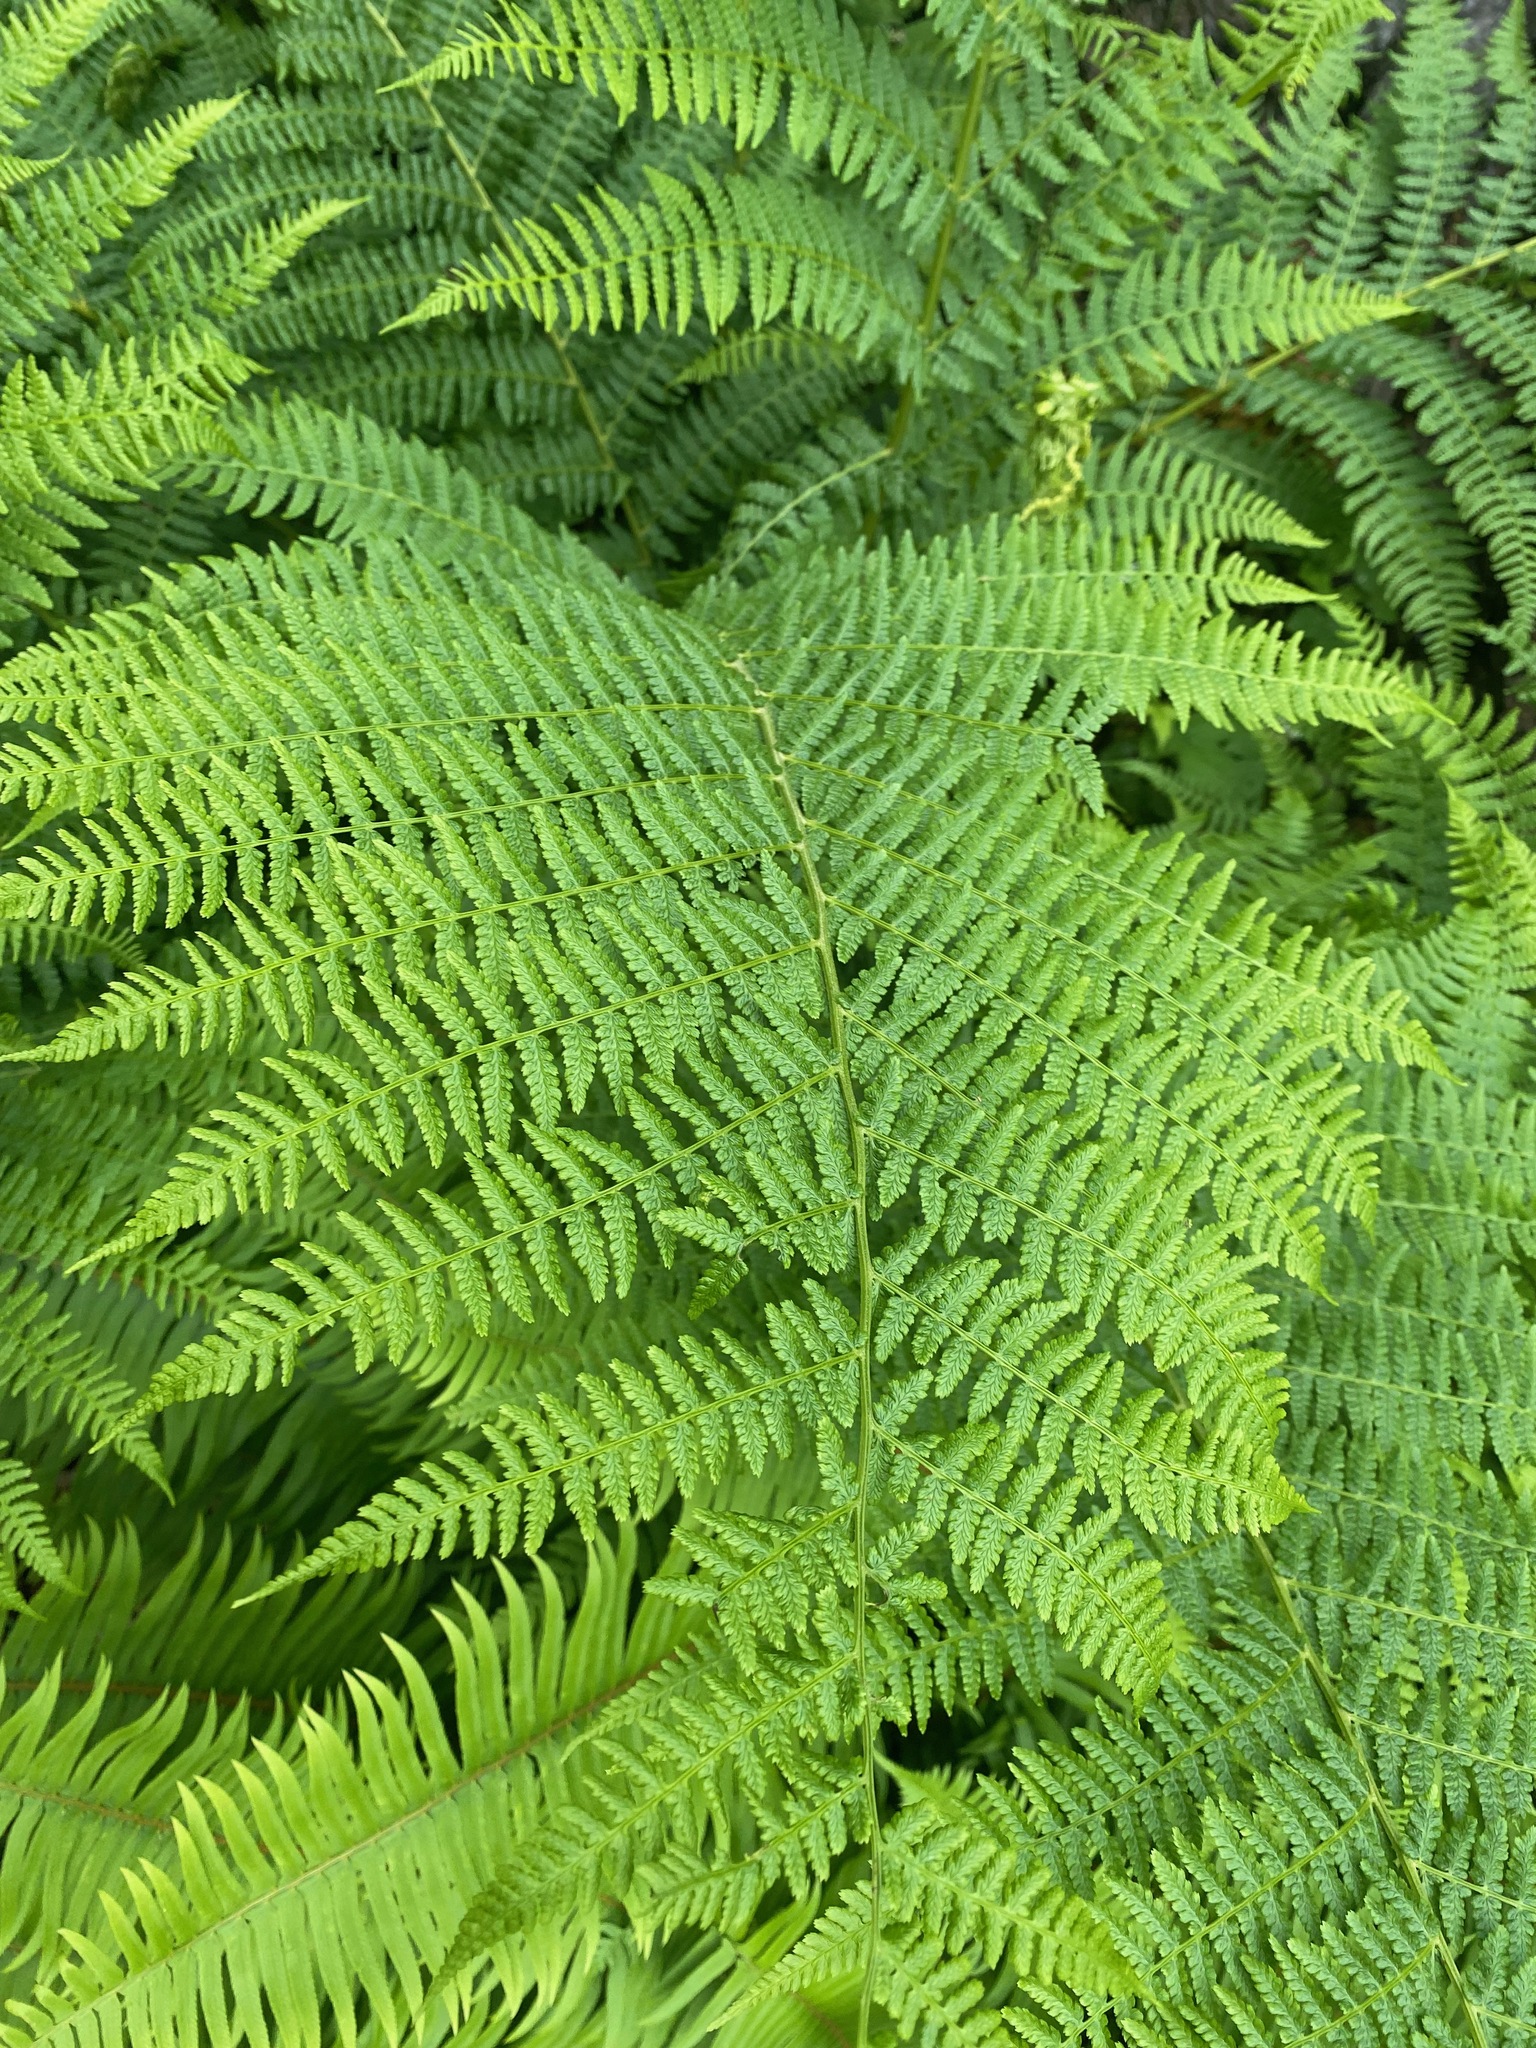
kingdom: Plantae
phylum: Tracheophyta
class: Polypodiopsida
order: Polypodiales
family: Athyriaceae
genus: Athyrium
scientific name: Athyrium filix-femina
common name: Lady fern
